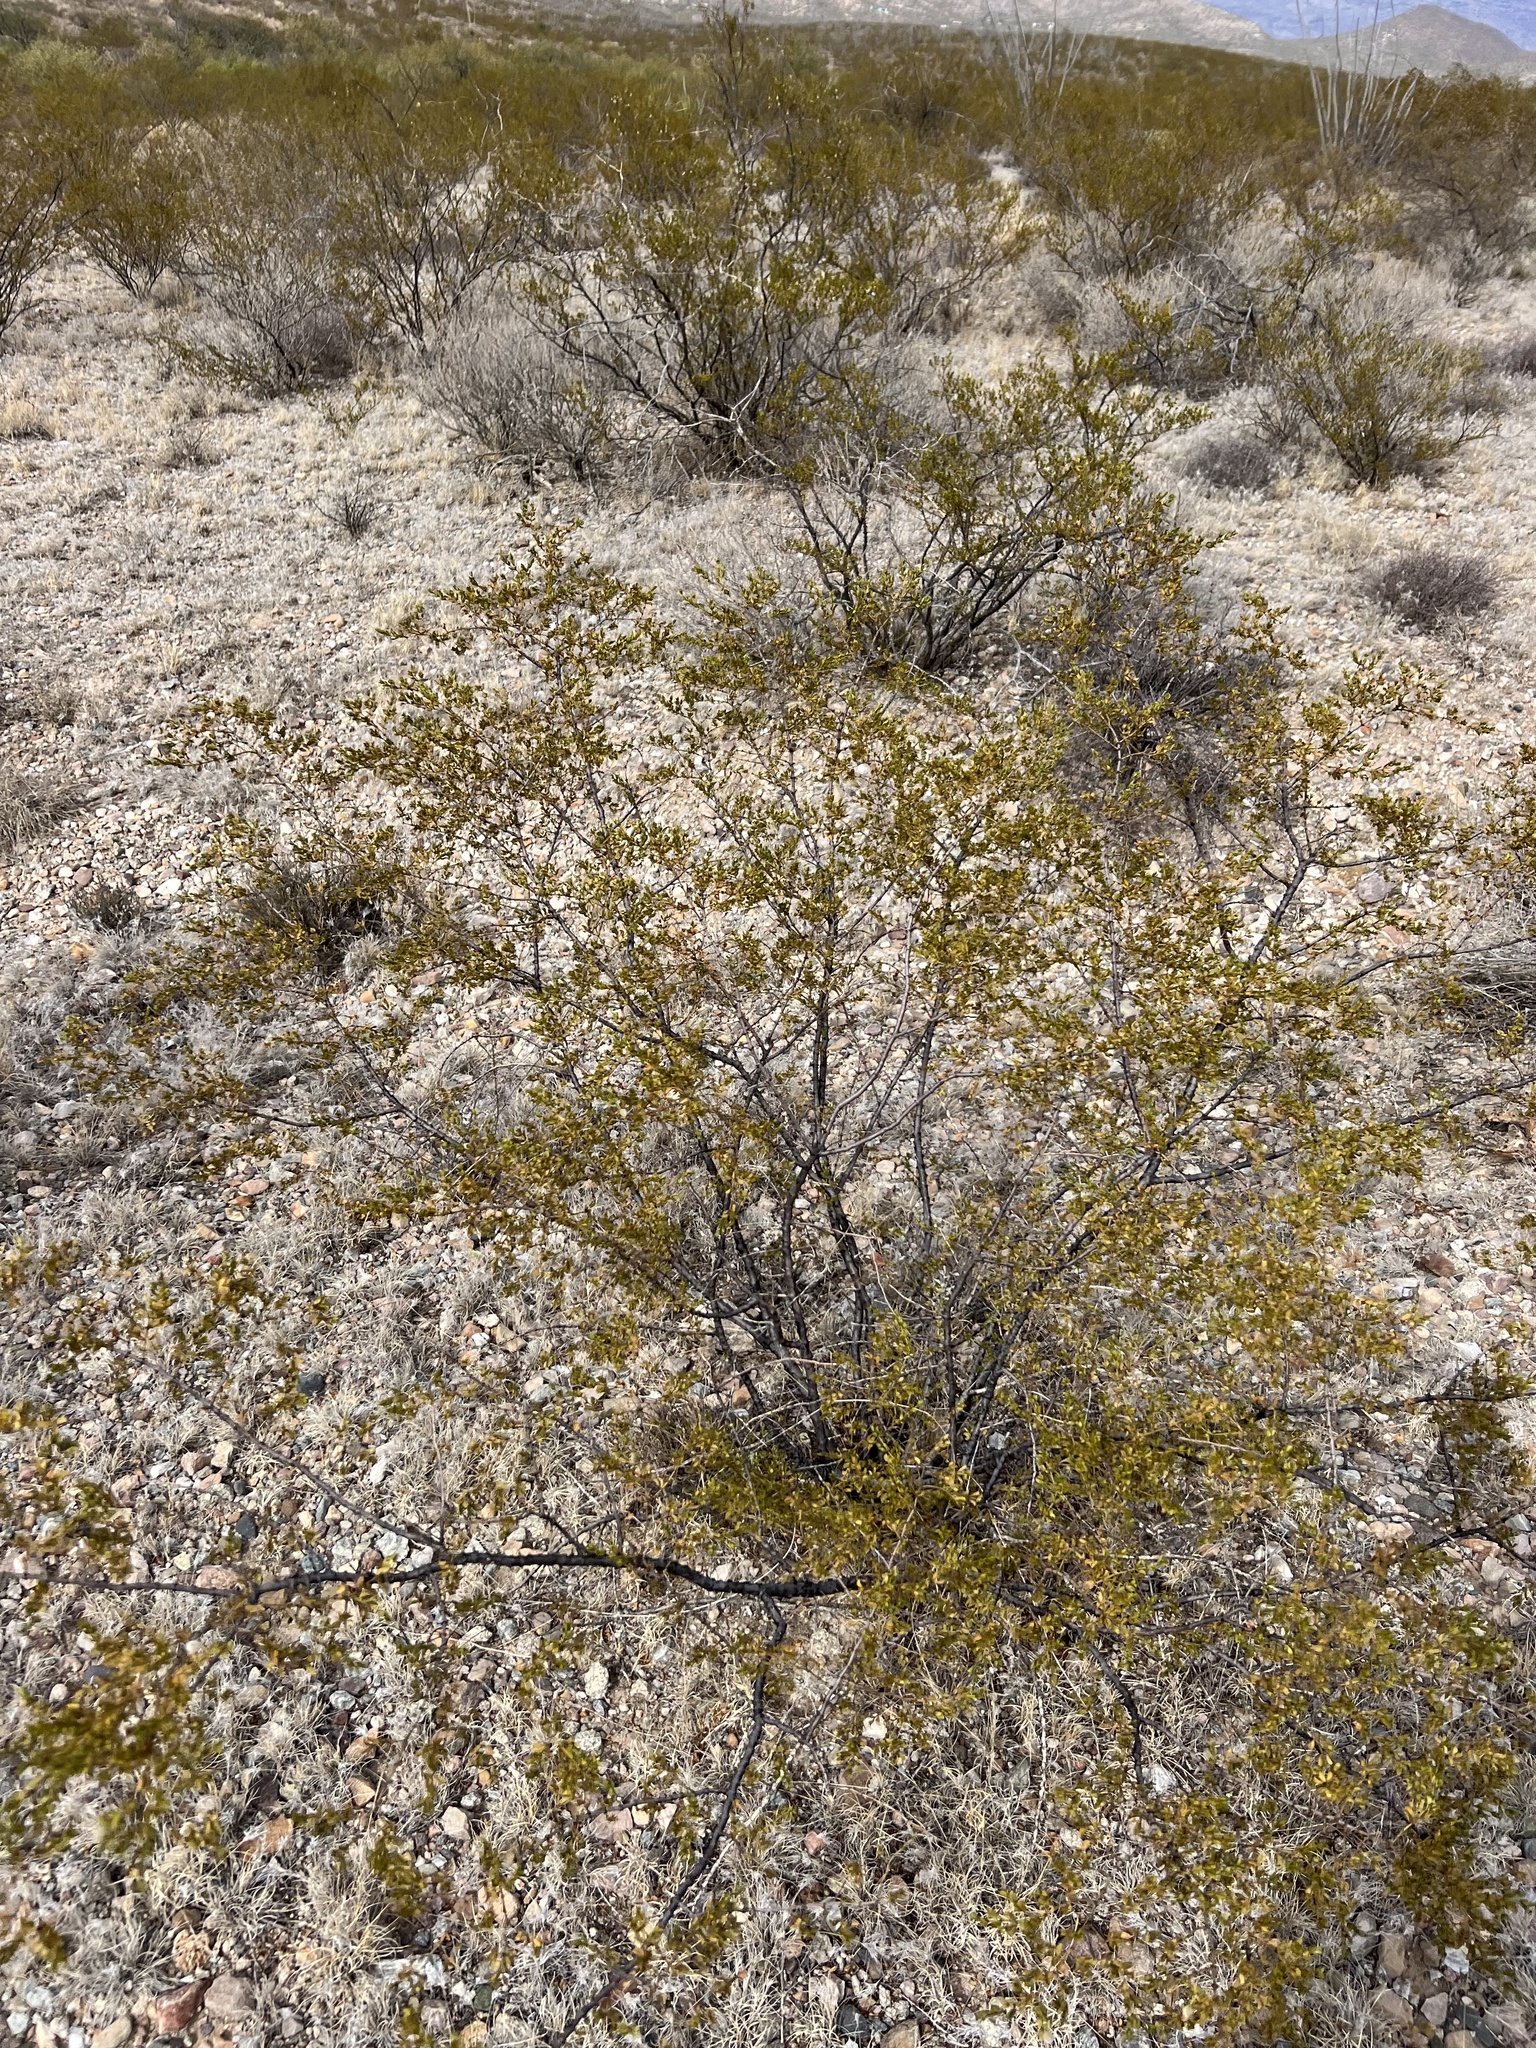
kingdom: Plantae
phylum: Tracheophyta
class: Magnoliopsida
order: Zygophyllales
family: Zygophyllaceae
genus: Larrea
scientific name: Larrea tridentata
